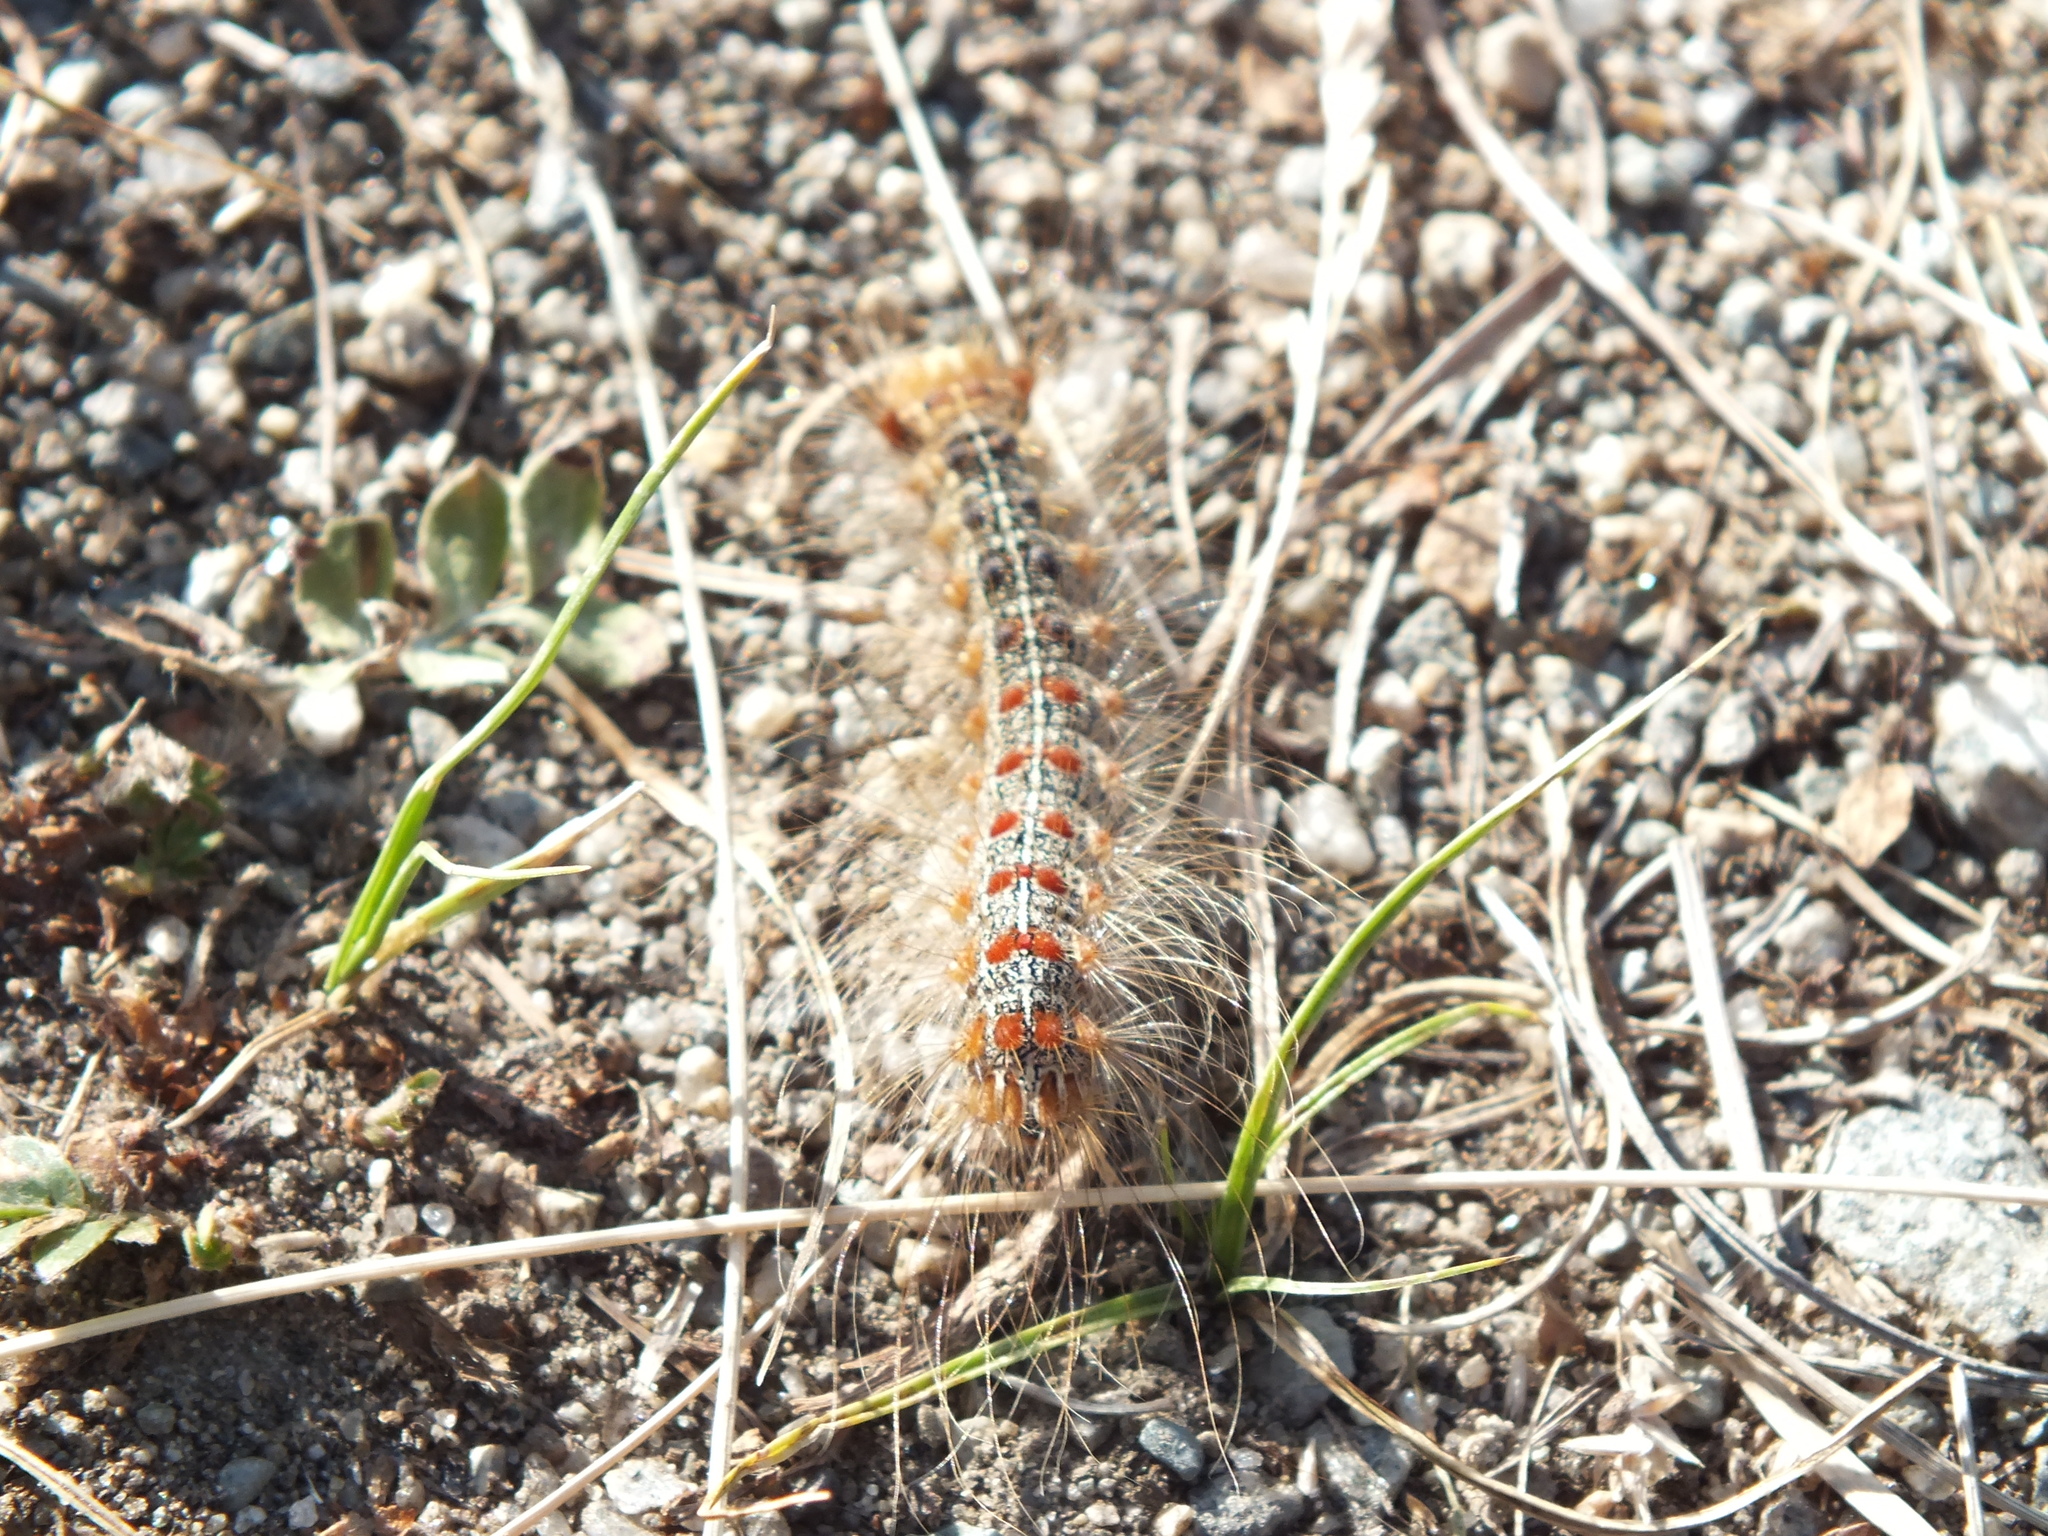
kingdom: Animalia
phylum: Arthropoda
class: Insecta
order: Lepidoptera
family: Erebidae
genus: Lymantria
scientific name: Lymantria dispar
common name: Gypsy moth
